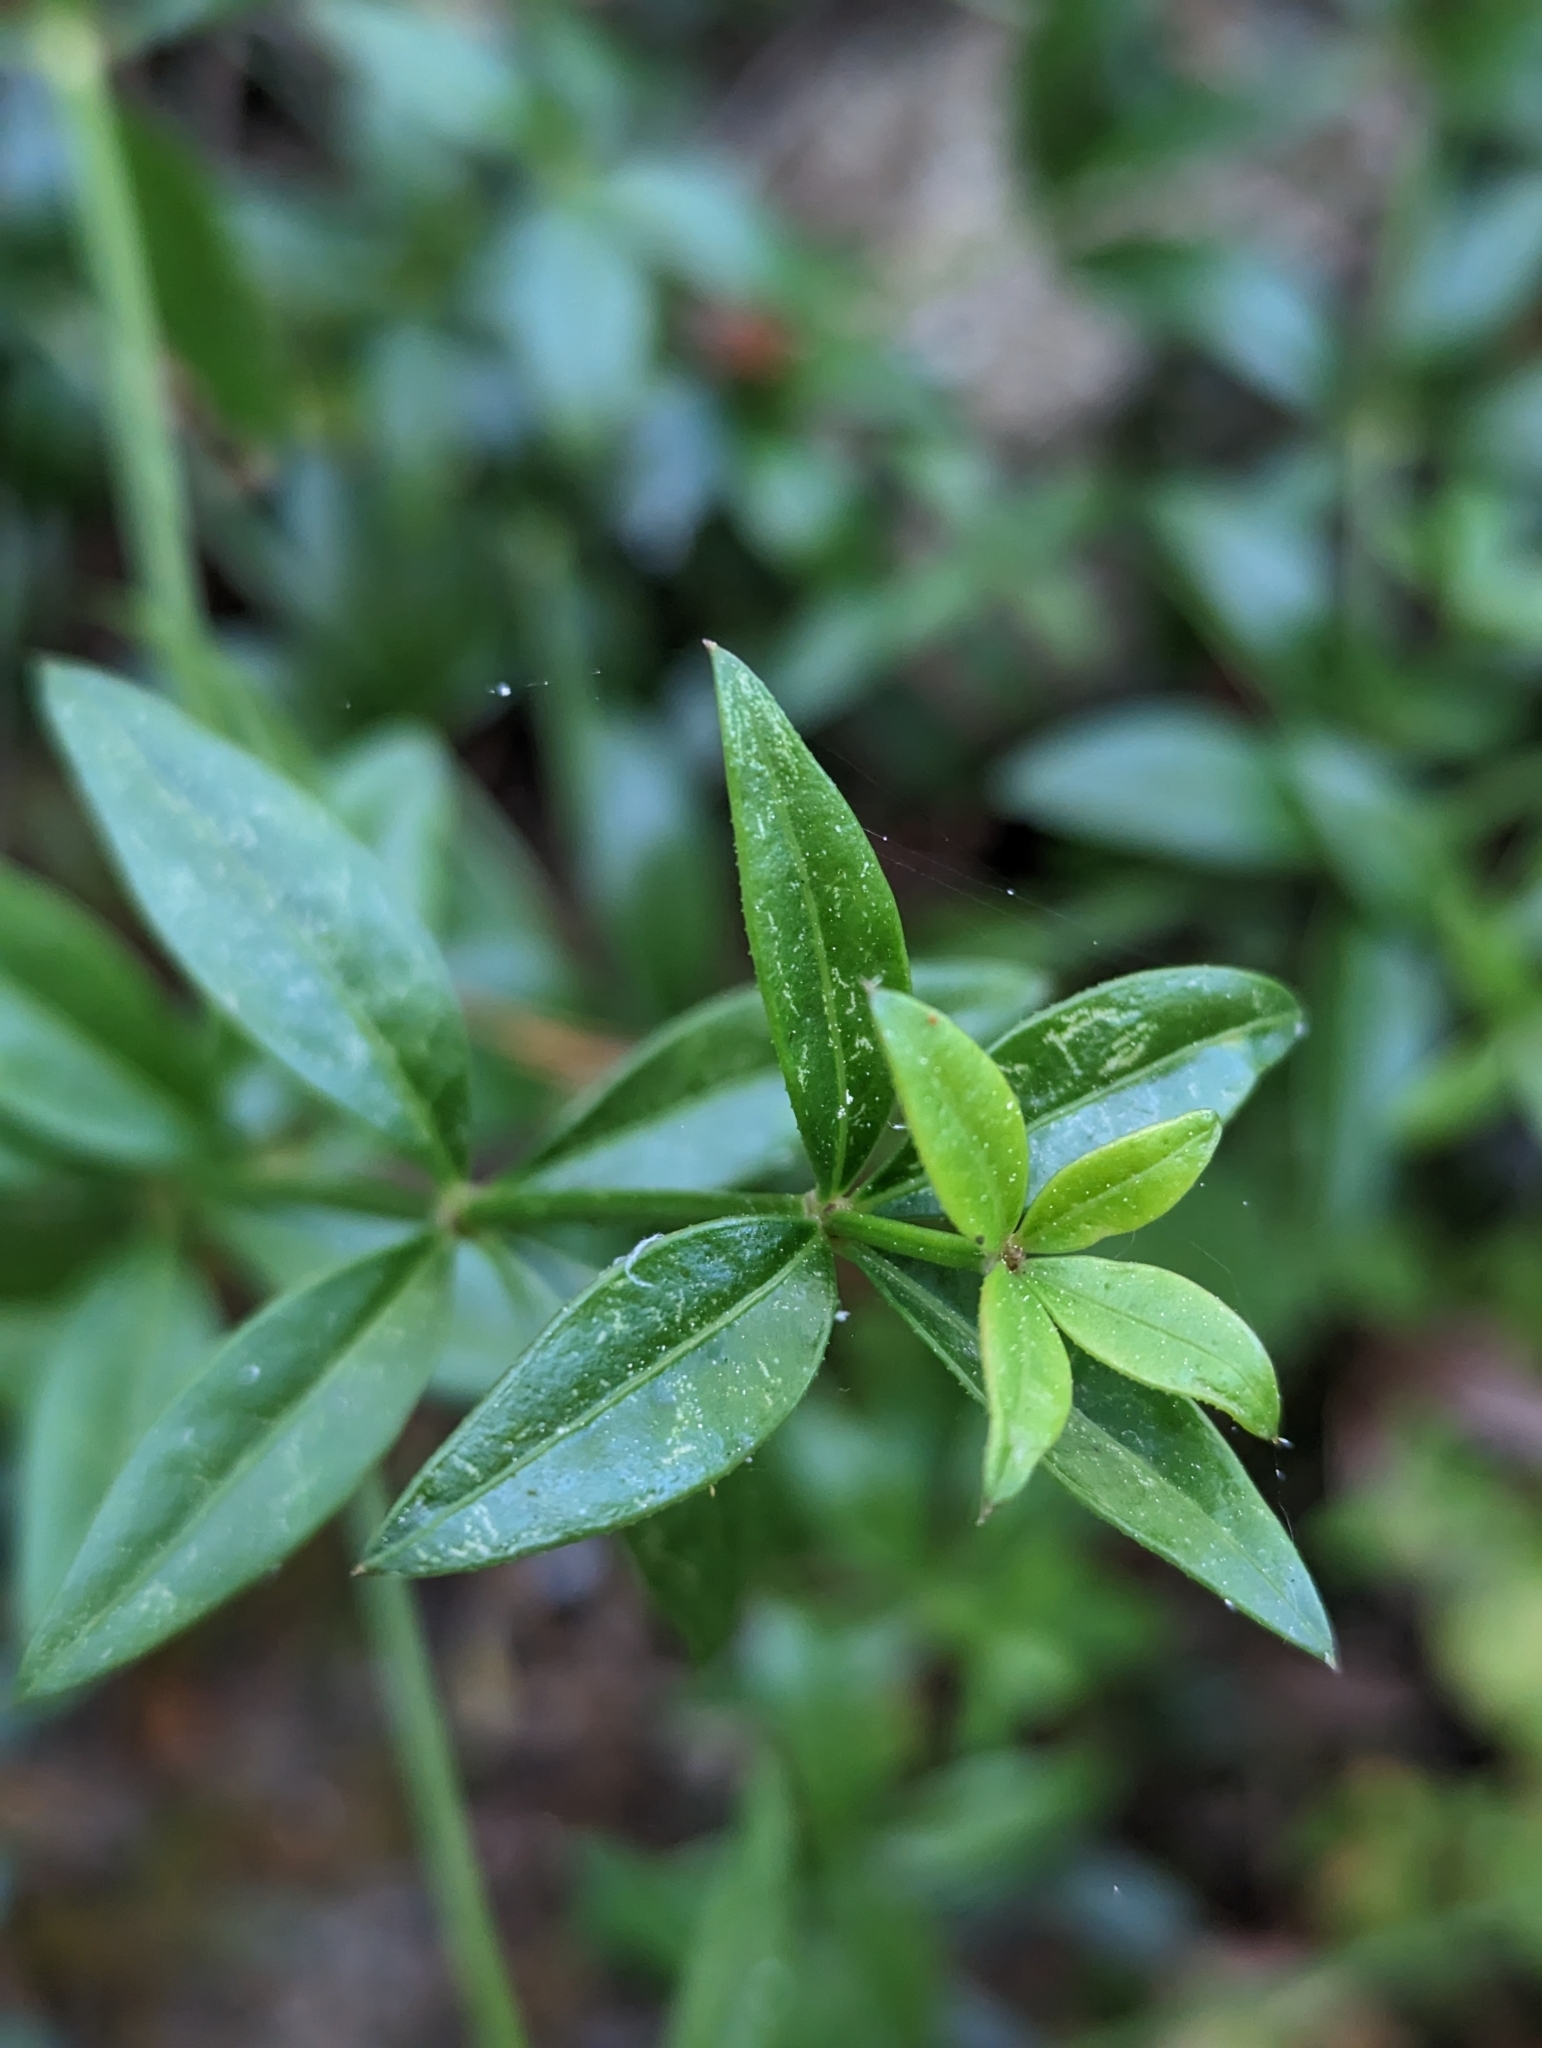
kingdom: Plantae
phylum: Tracheophyta
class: Magnoliopsida
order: Gentianales
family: Rubiaceae
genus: Rubia
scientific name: Rubia peregrina
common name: Wild madder
